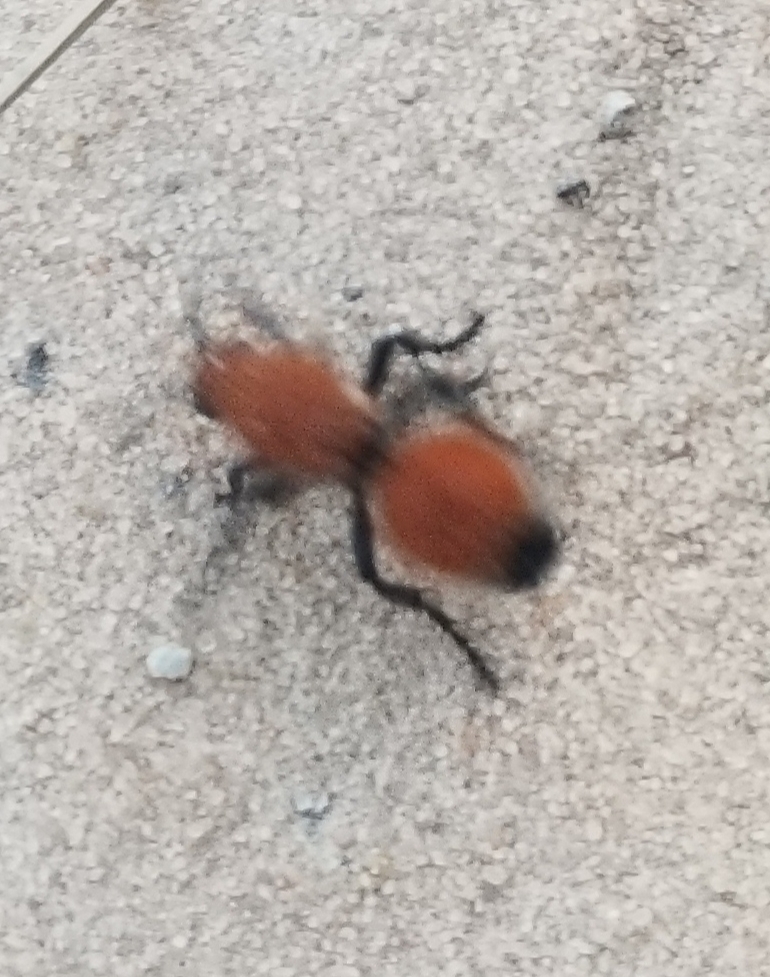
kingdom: Animalia
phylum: Arthropoda
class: Insecta
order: Hymenoptera
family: Mutillidae
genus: Dasymutilla
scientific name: Dasymutilla
